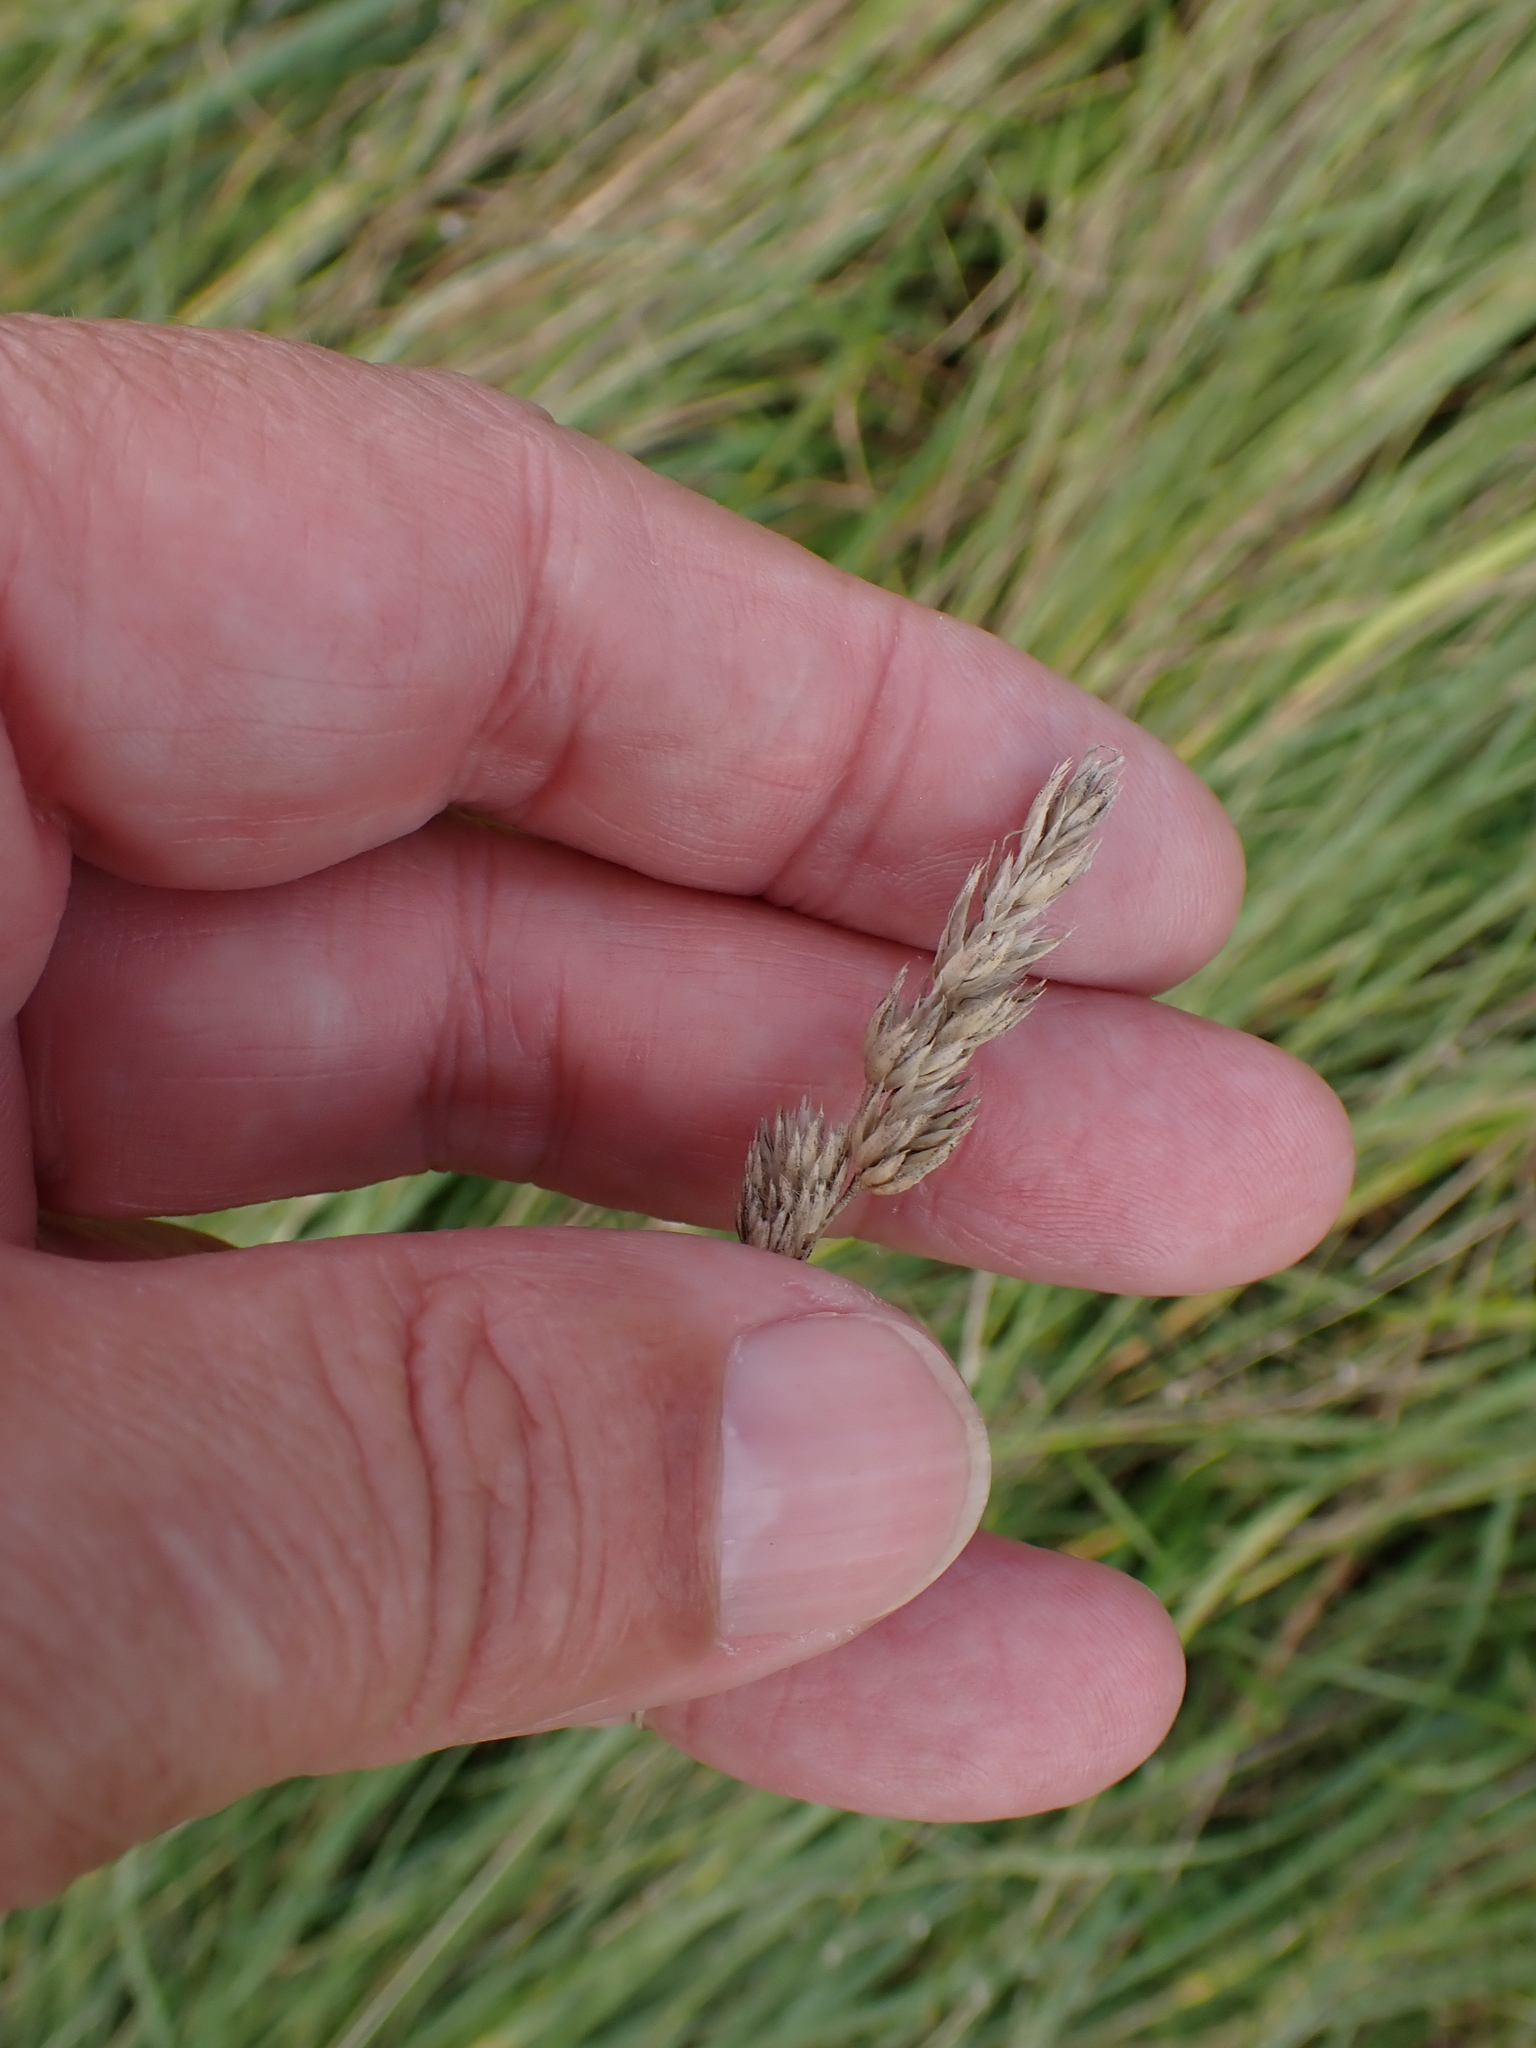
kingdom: Plantae
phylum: Tracheophyta
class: Liliopsida
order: Poales
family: Poaceae
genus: Dactylis
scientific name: Dactylis glomerata
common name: Orchardgrass
